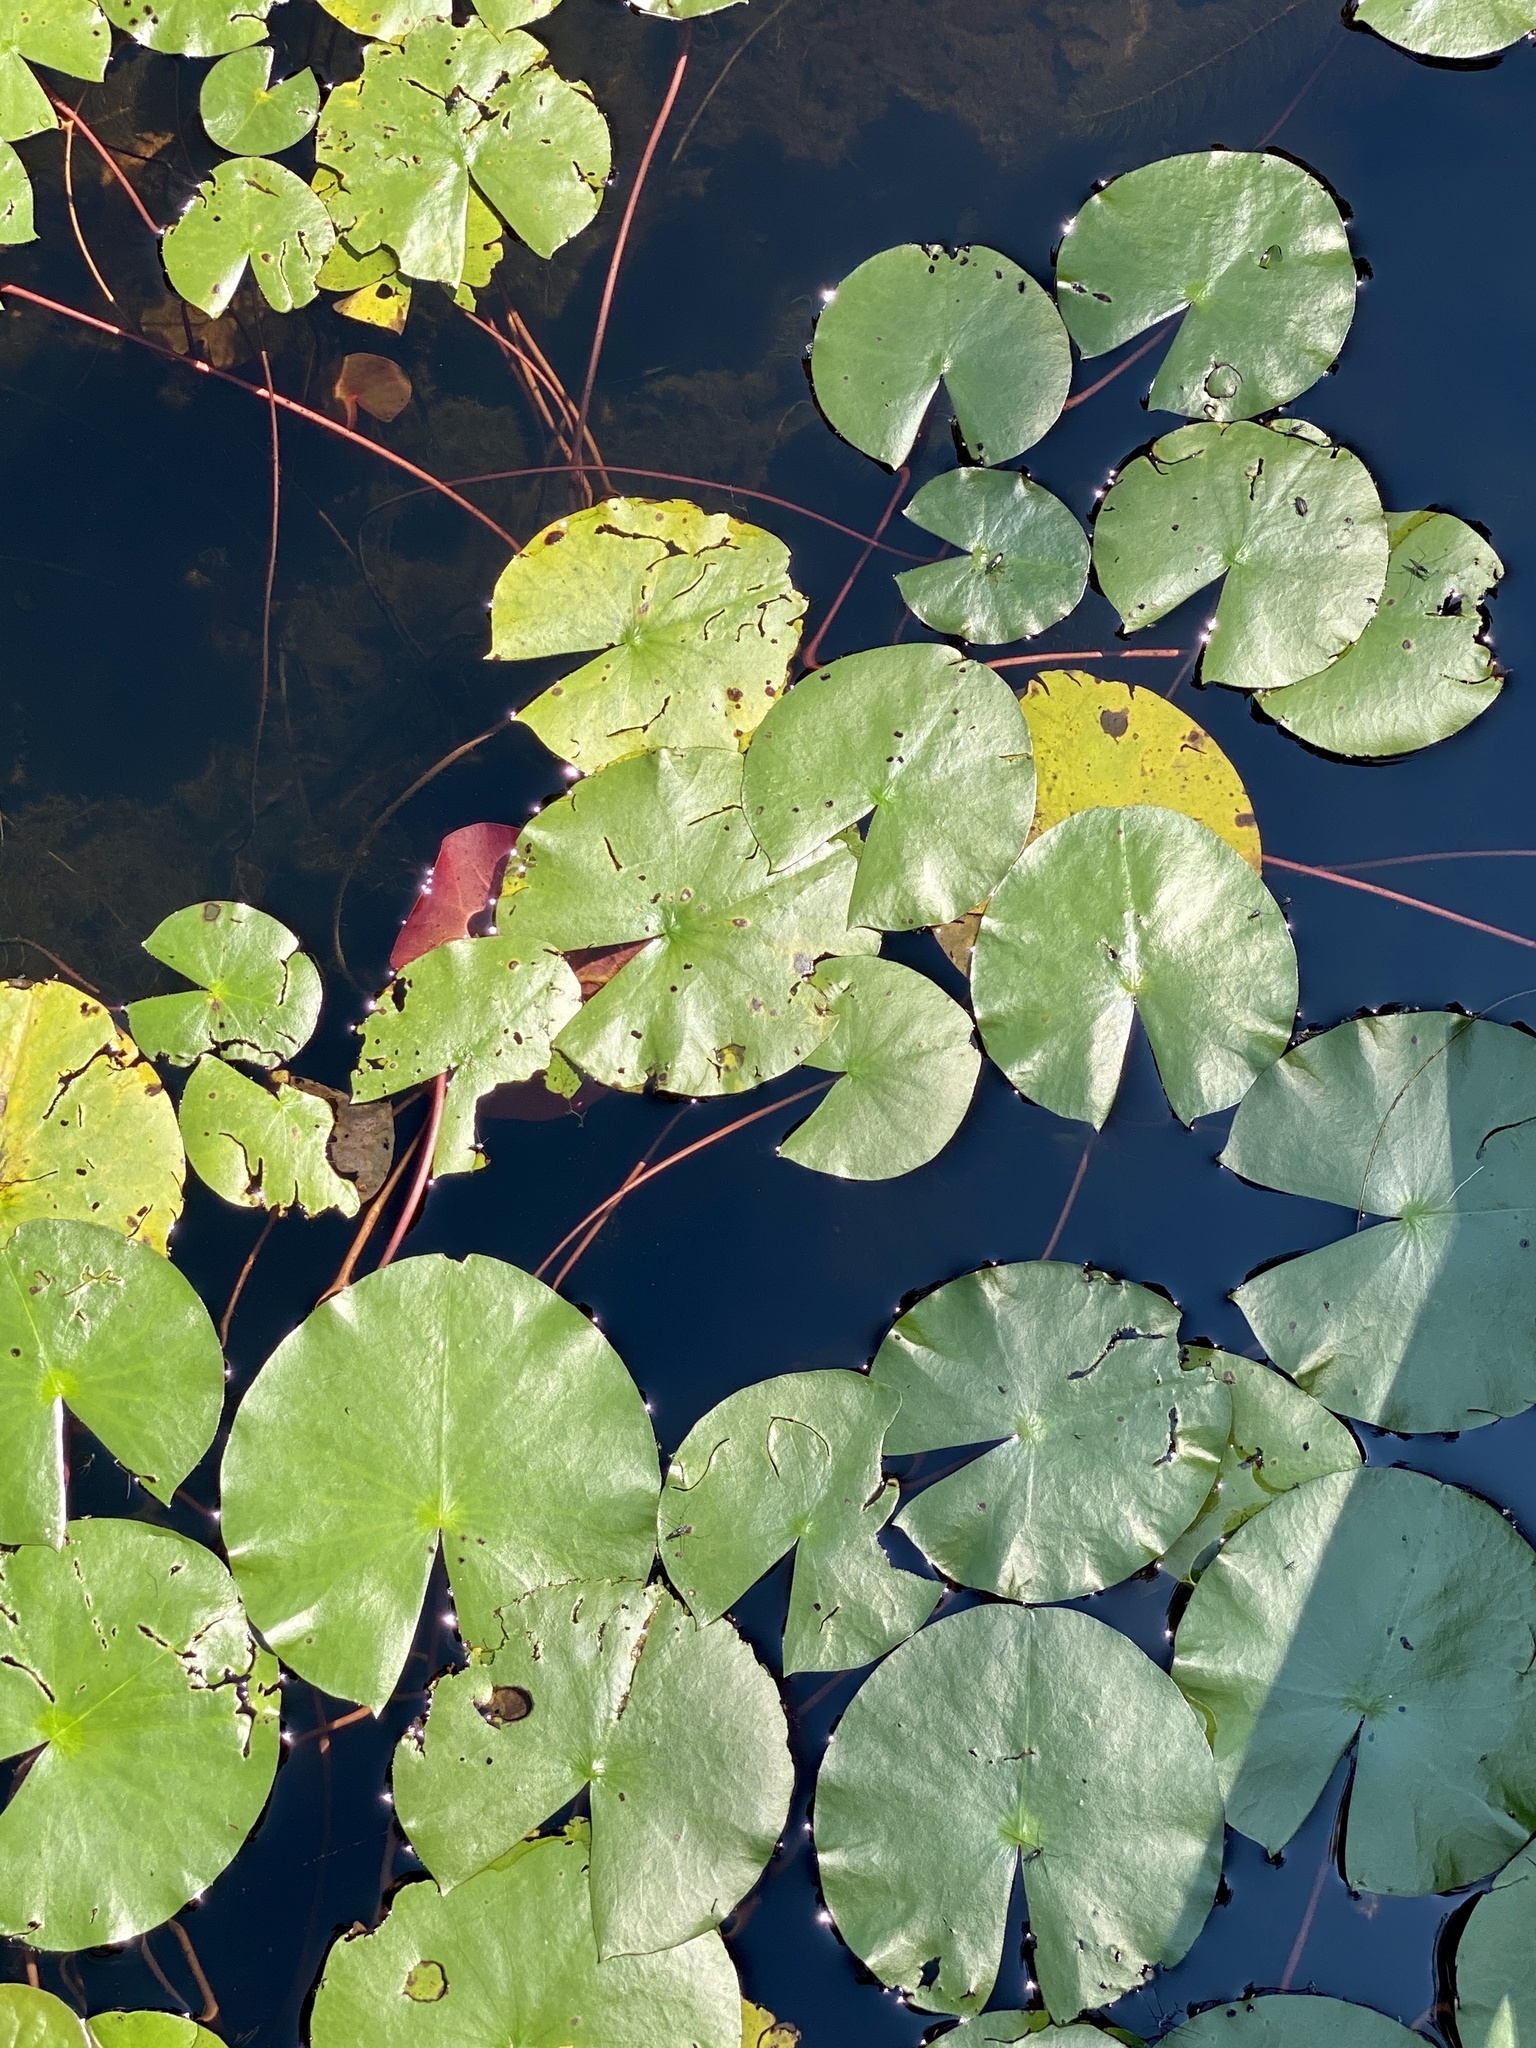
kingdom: Plantae
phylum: Tracheophyta
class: Magnoliopsida
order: Nymphaeales
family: Nymphaeaceae
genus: Nymphaea
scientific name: Nymphaea odorata
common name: Fragrant water-lily
